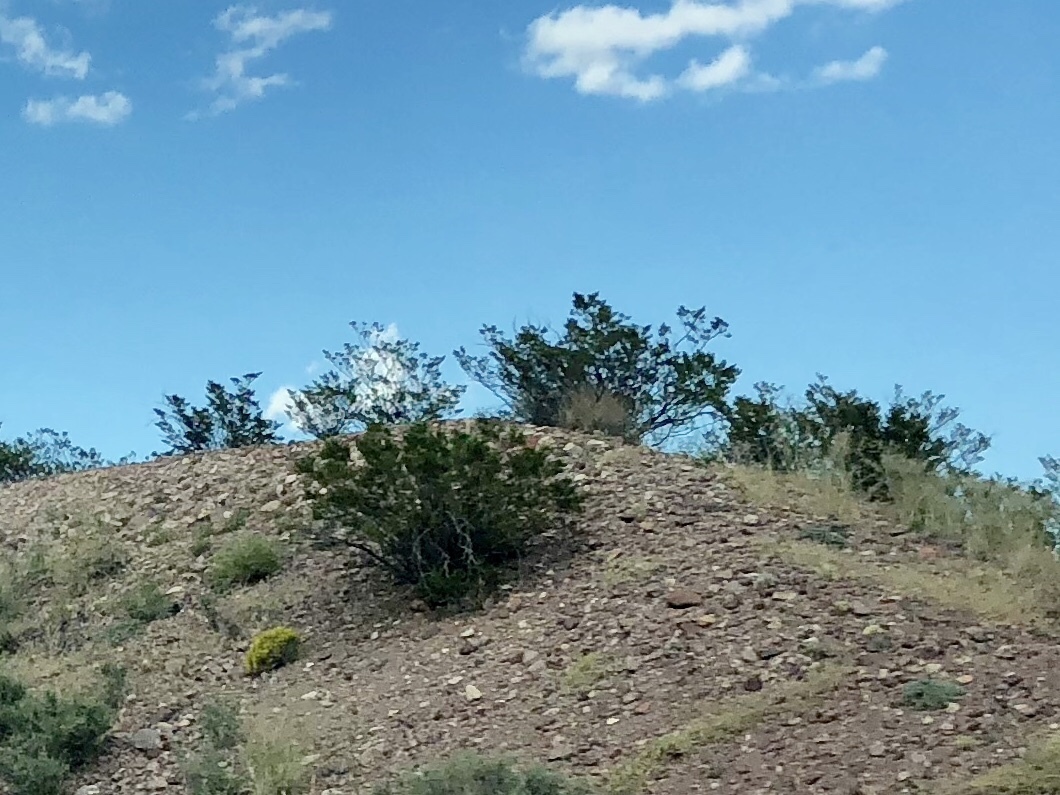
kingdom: Plantae
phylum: Tracheophyta
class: Magnoliopsida
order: Zygophyllales
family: Zygophyllaceae
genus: Larrea
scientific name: Larrea tridentata
